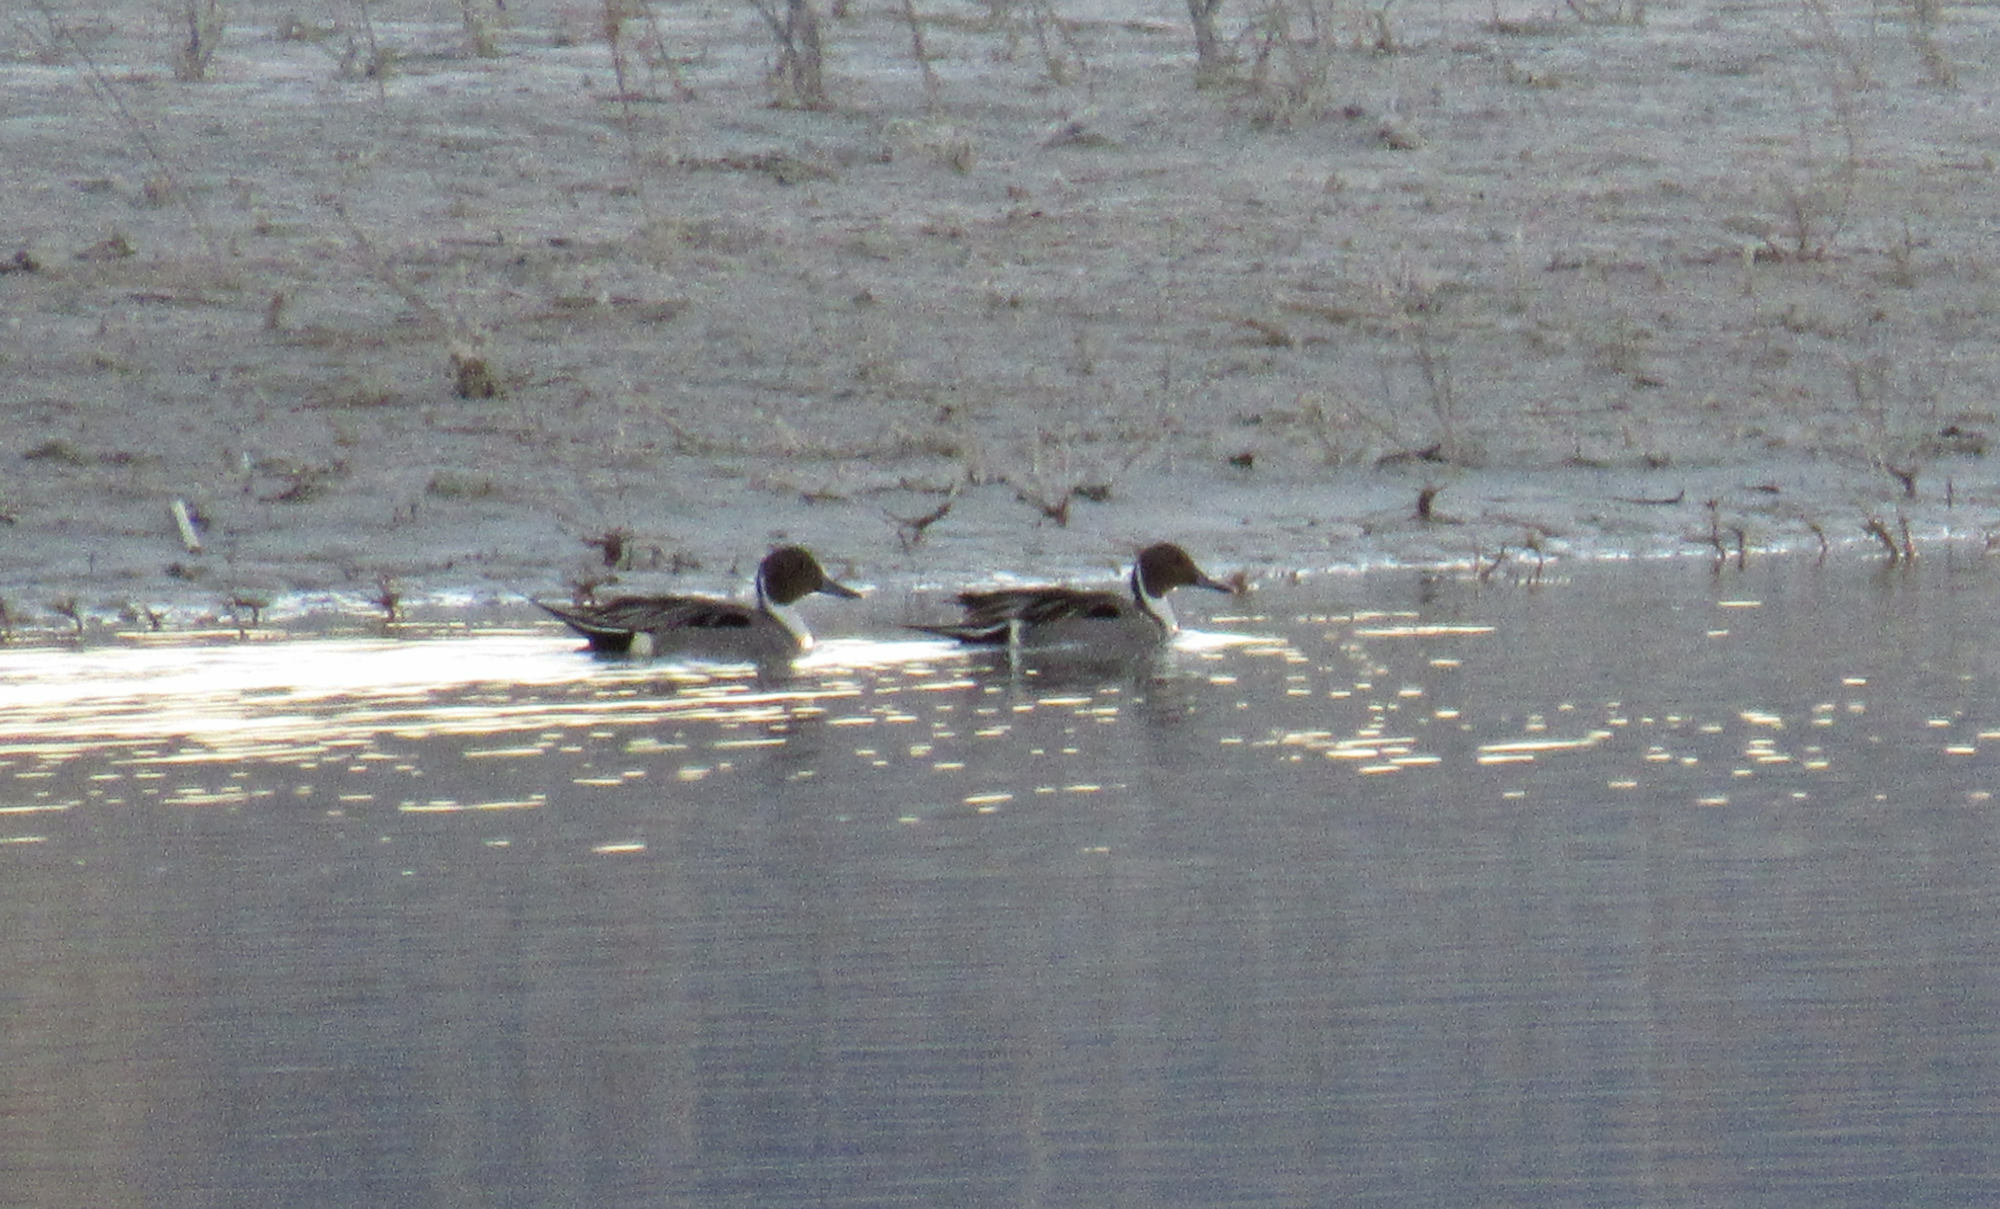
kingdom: Animalia
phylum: Chordata
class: Aves
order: Anseriformes
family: Anatidae
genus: Anas
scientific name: Anas acuta
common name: Northern pintail
